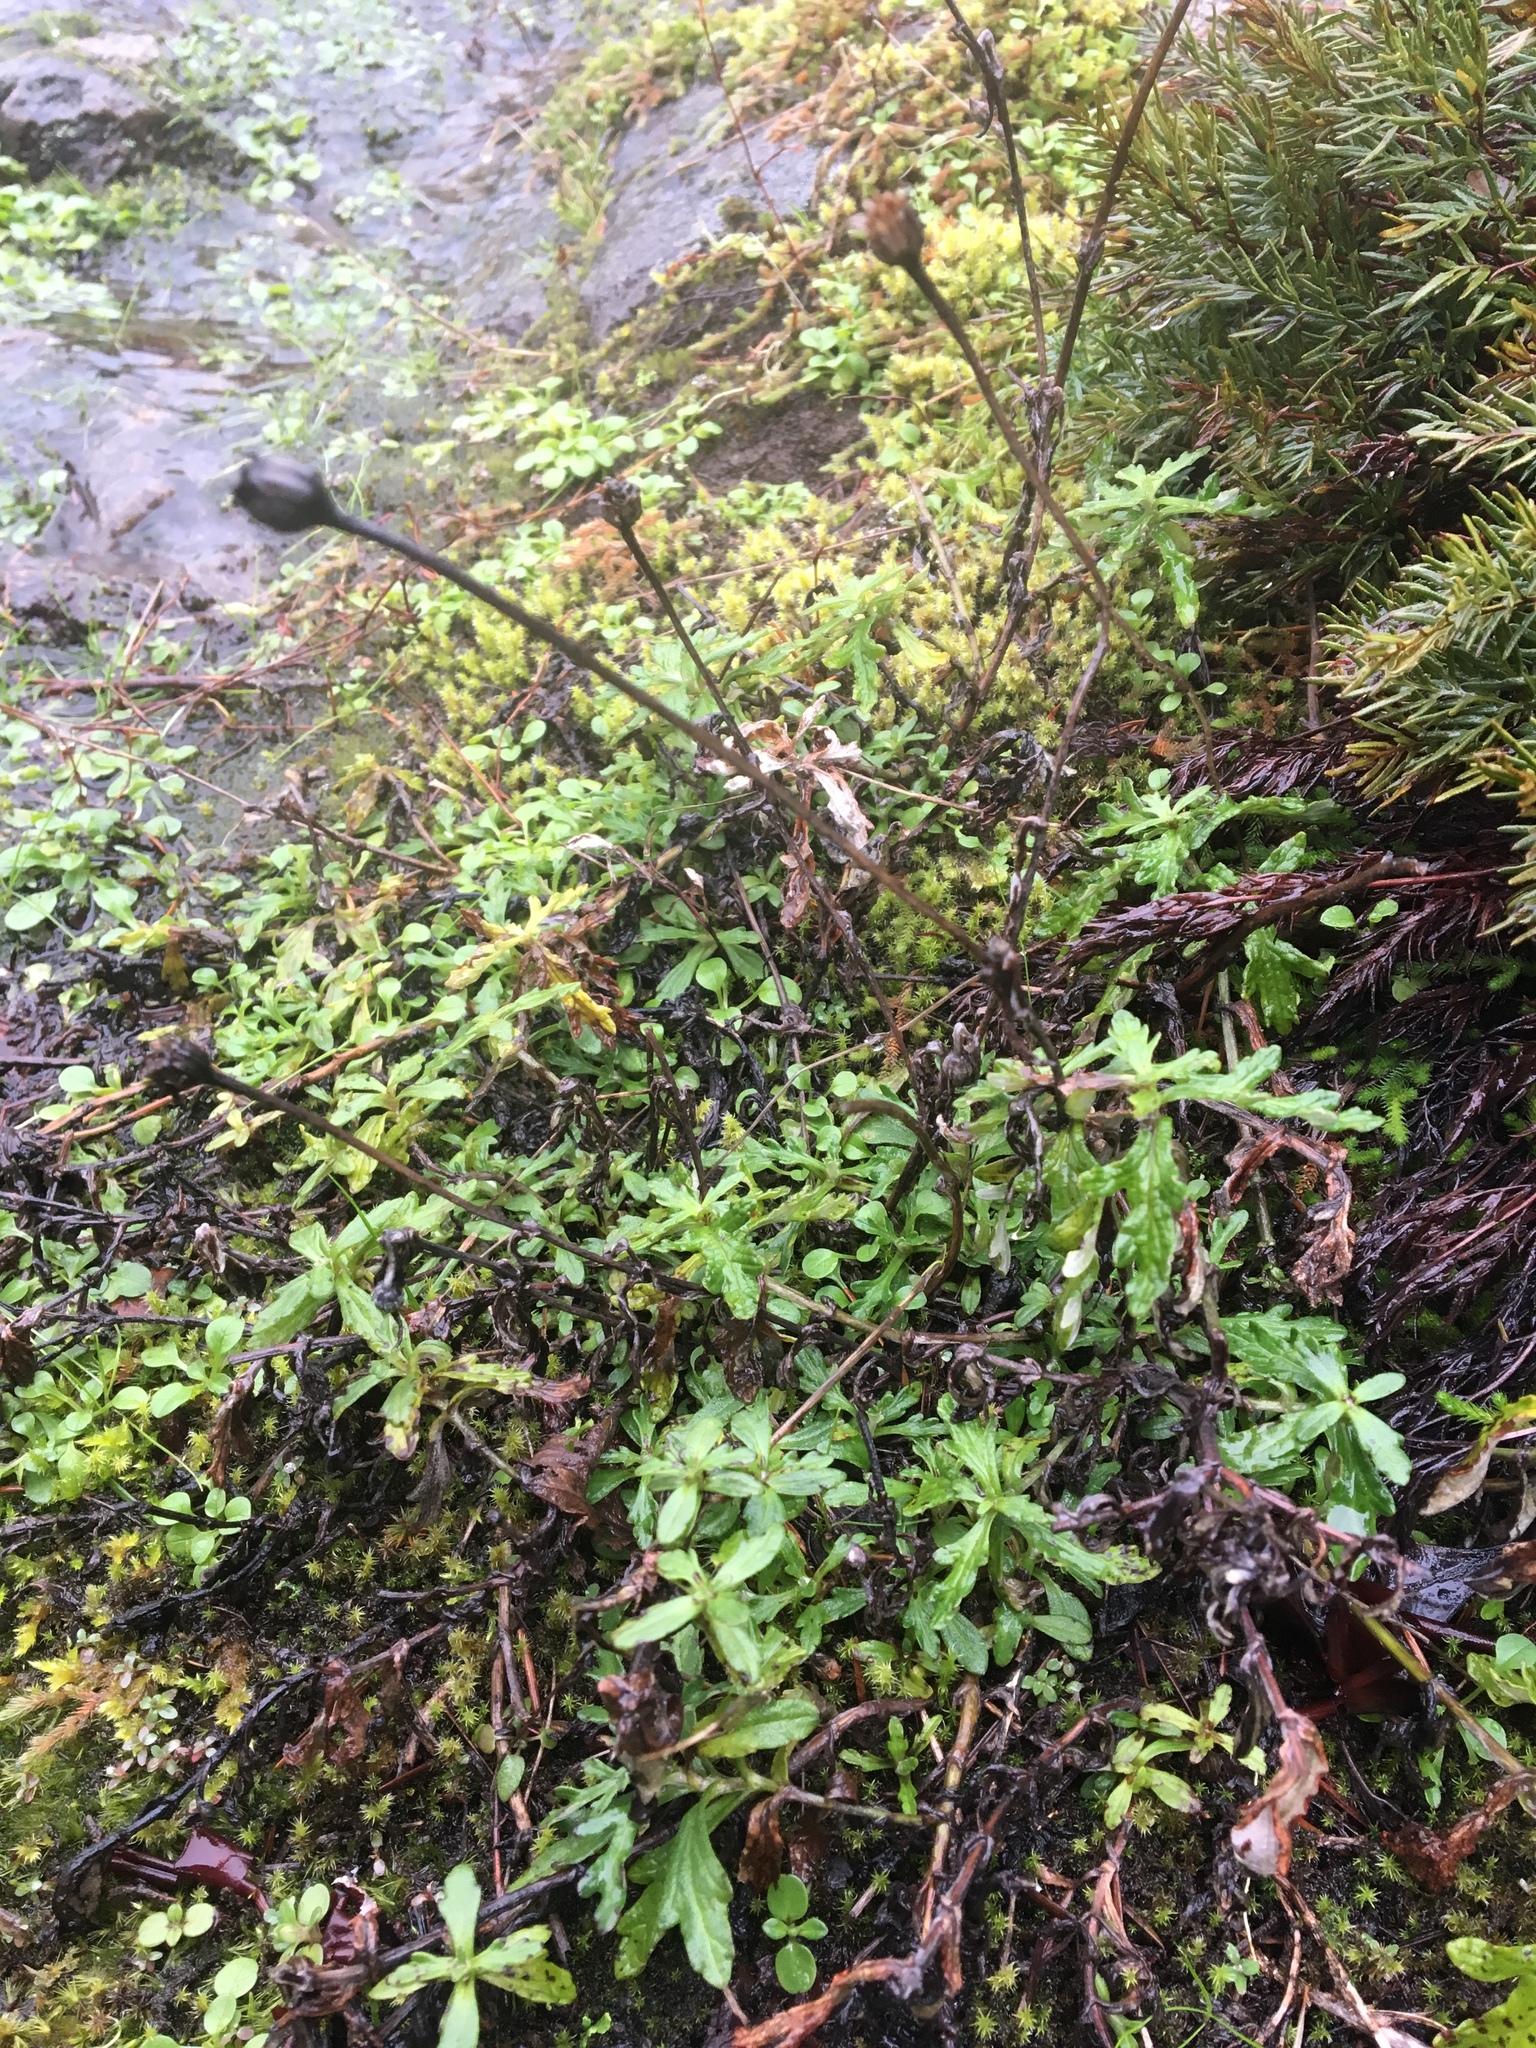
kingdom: Plantae
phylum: Tracheophyta
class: Magnoliopsida
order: Asterales
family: Asteraceae
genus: Eriophyllum
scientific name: Eriophyllum lanatum
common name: Common woolly-sunflower
